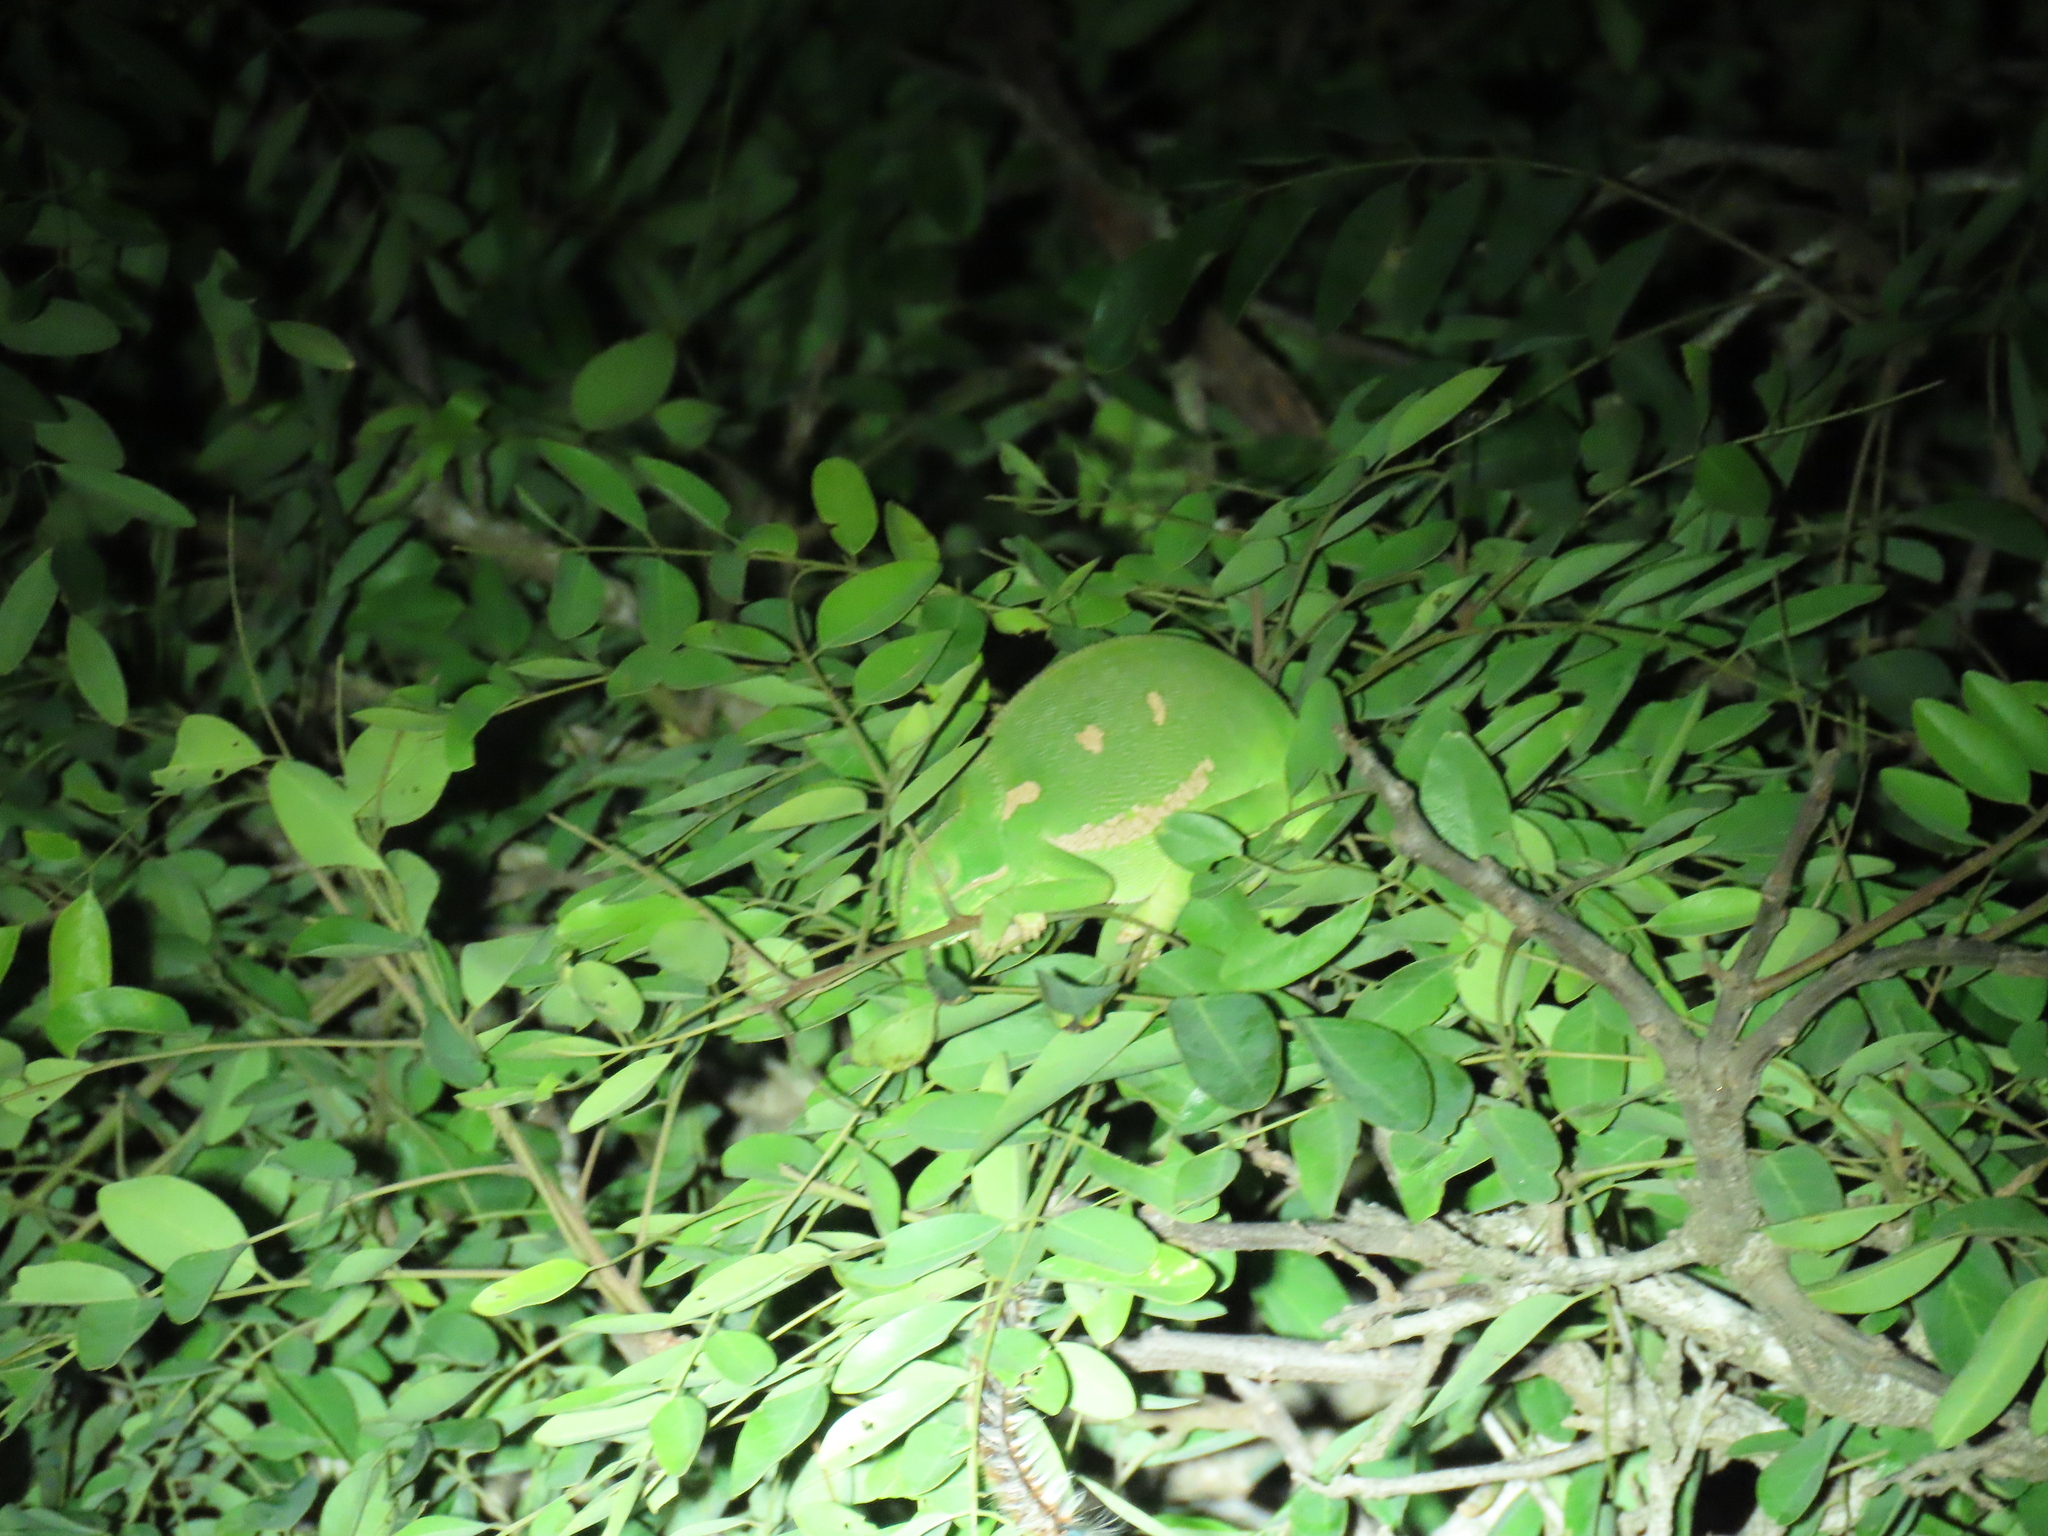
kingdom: Animalia
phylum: Chordata
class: Squamata
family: Chamaeleonidae
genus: Chamaeleo
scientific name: Chamaeleo dilepis
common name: Flapneck chameleon
